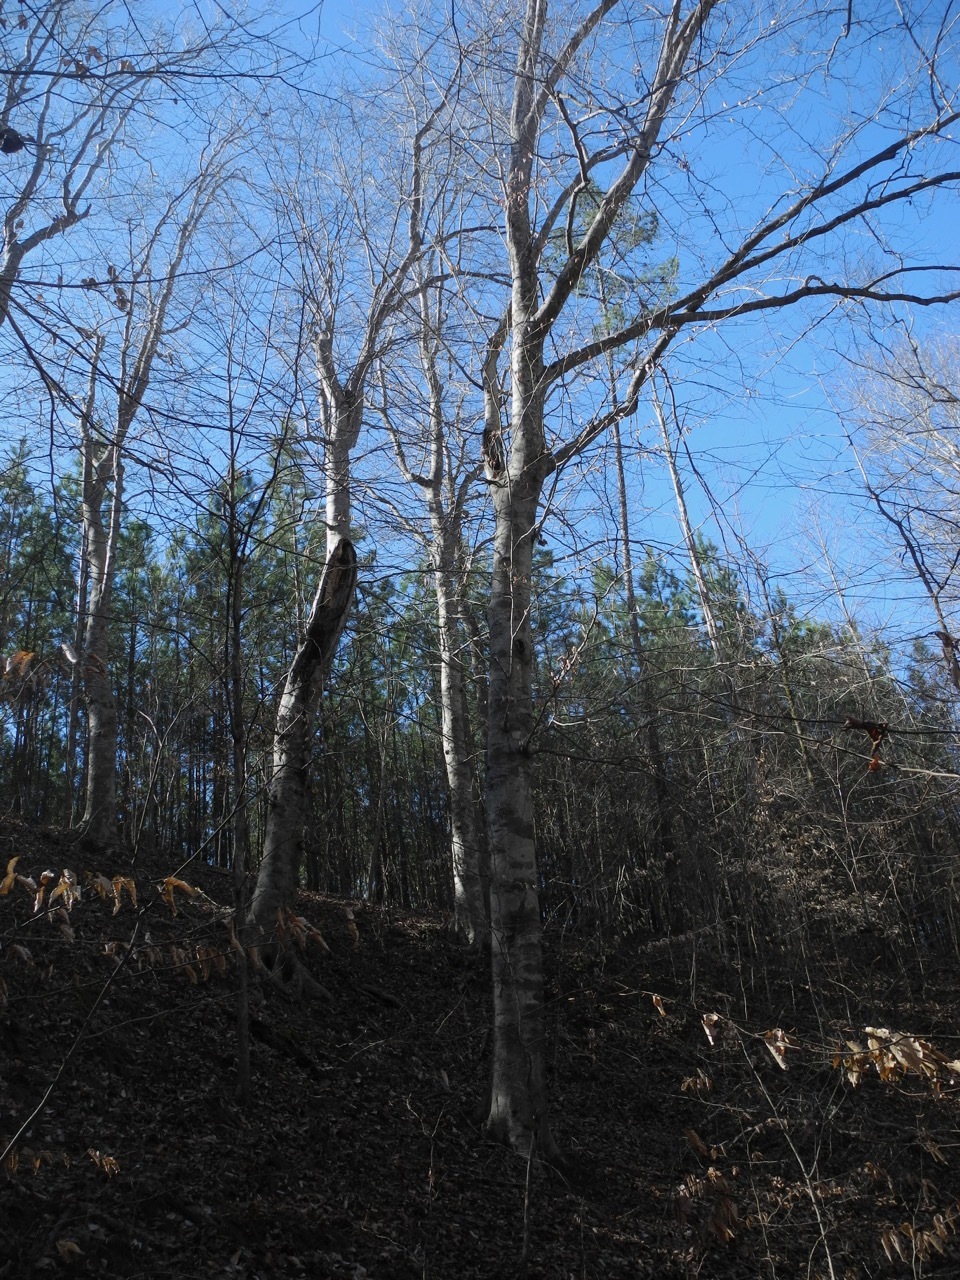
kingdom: Plantae
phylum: Tracheophyta
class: Magnoliopsida
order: Fagales
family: Fagaceae
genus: Fagus
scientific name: Fagus grandifolia
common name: American beech
